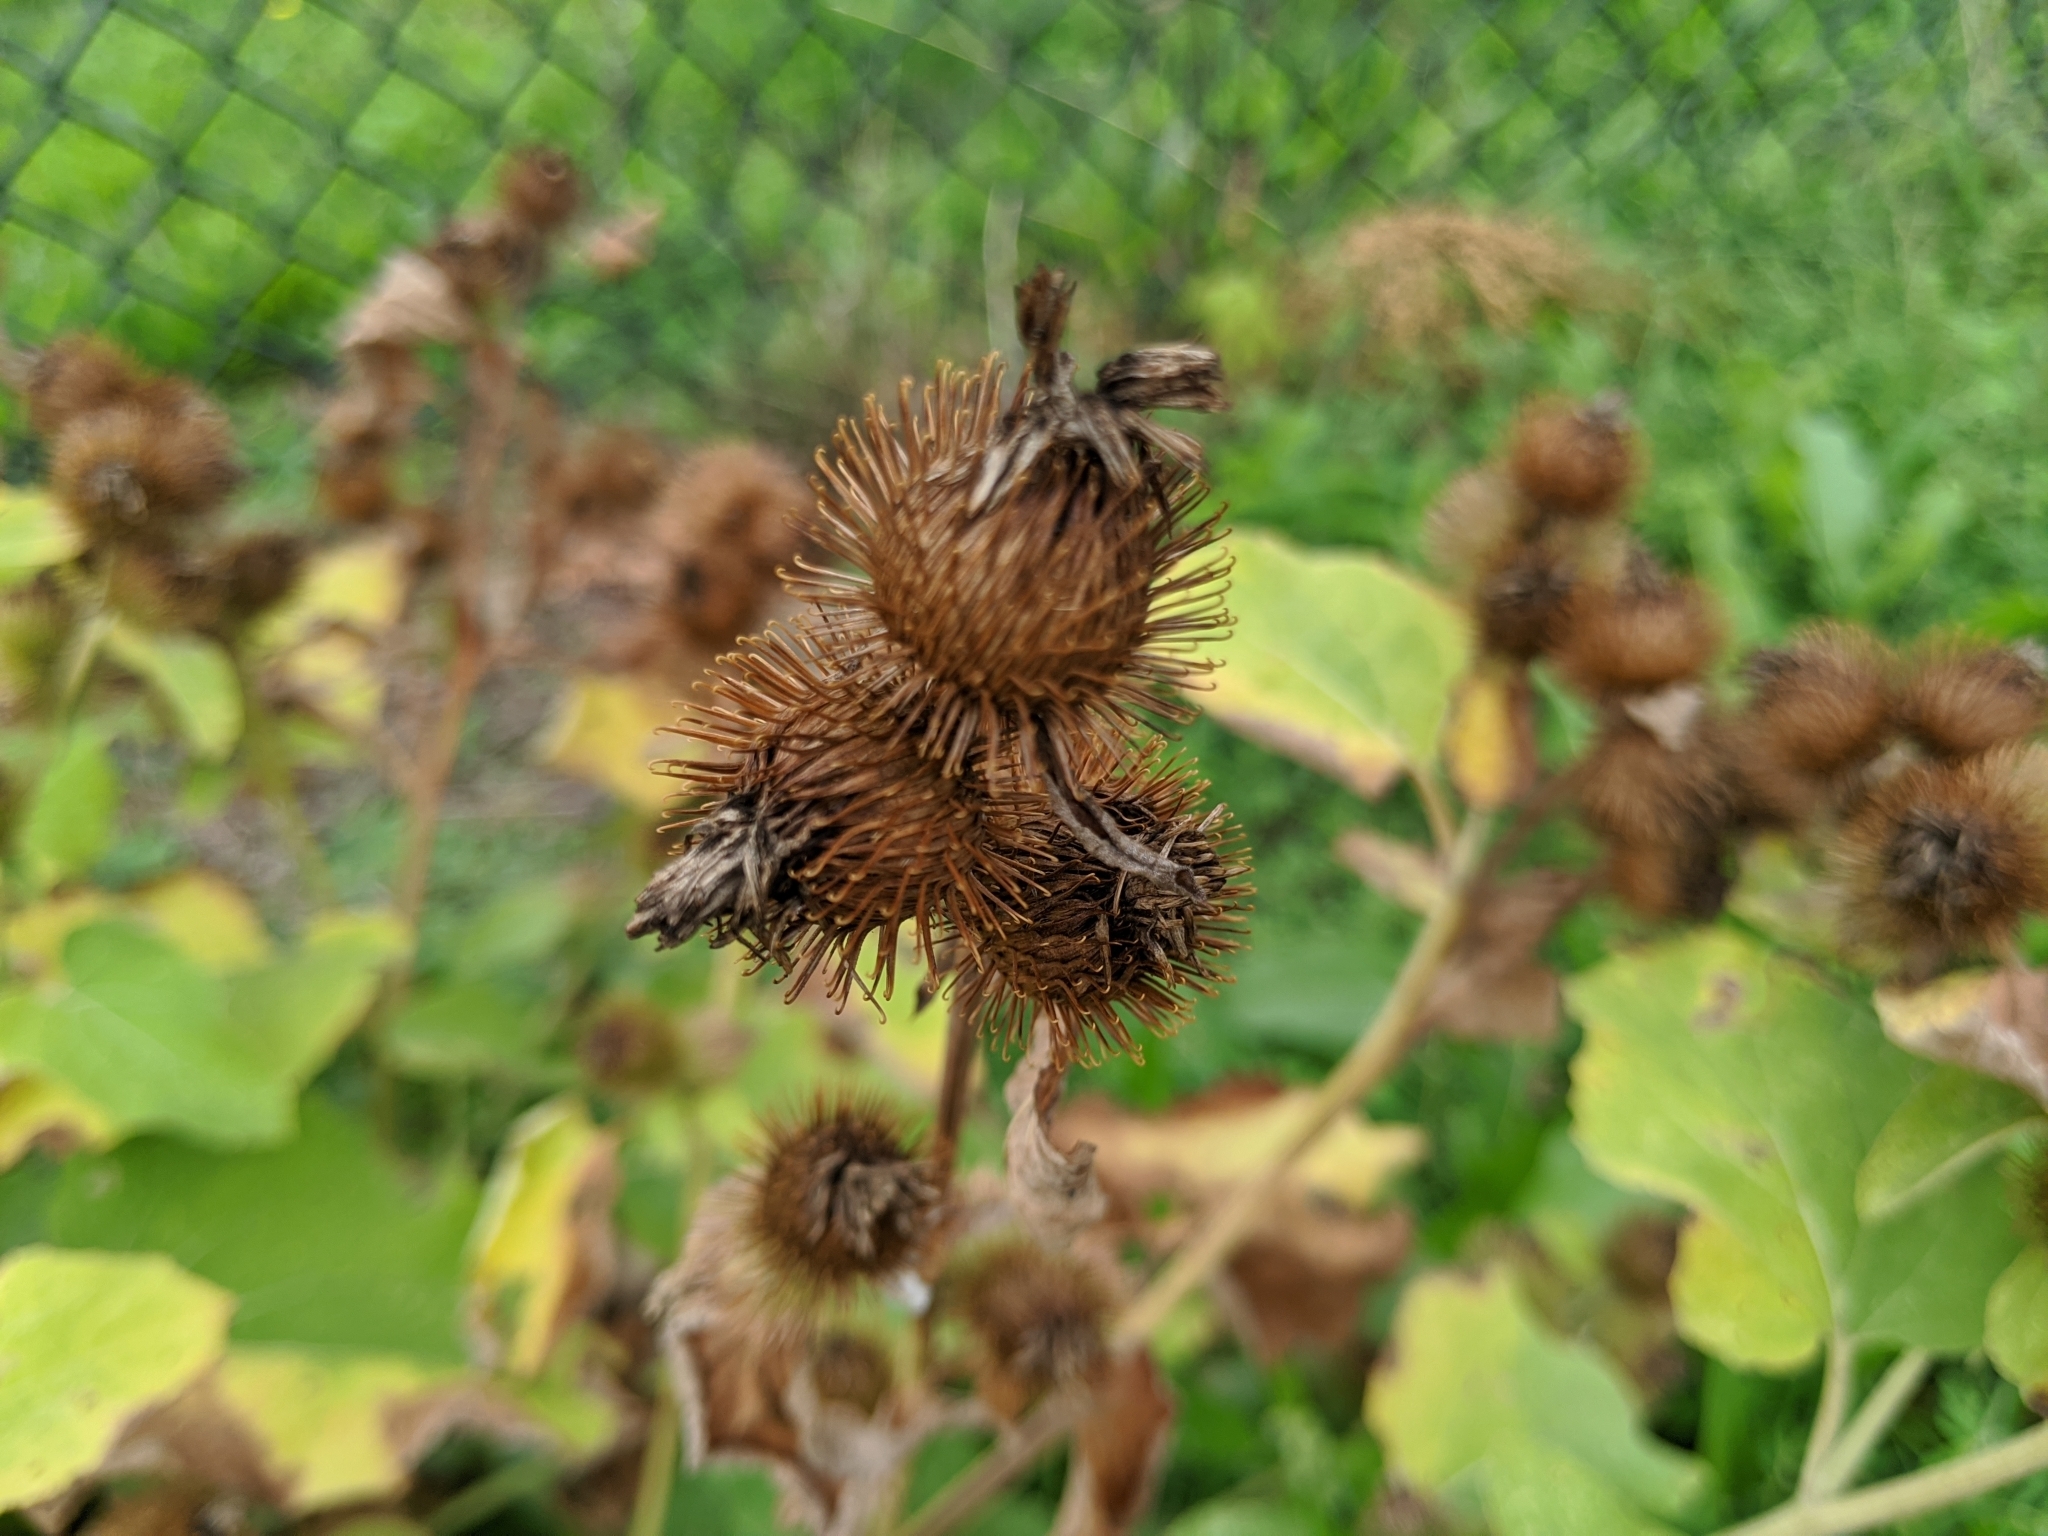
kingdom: Plantae
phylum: Tracheophyta
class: Magnoliopsida
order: Asterales
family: Asteraceae
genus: Arctium
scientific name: Arctium minus
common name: Lesser burdock
